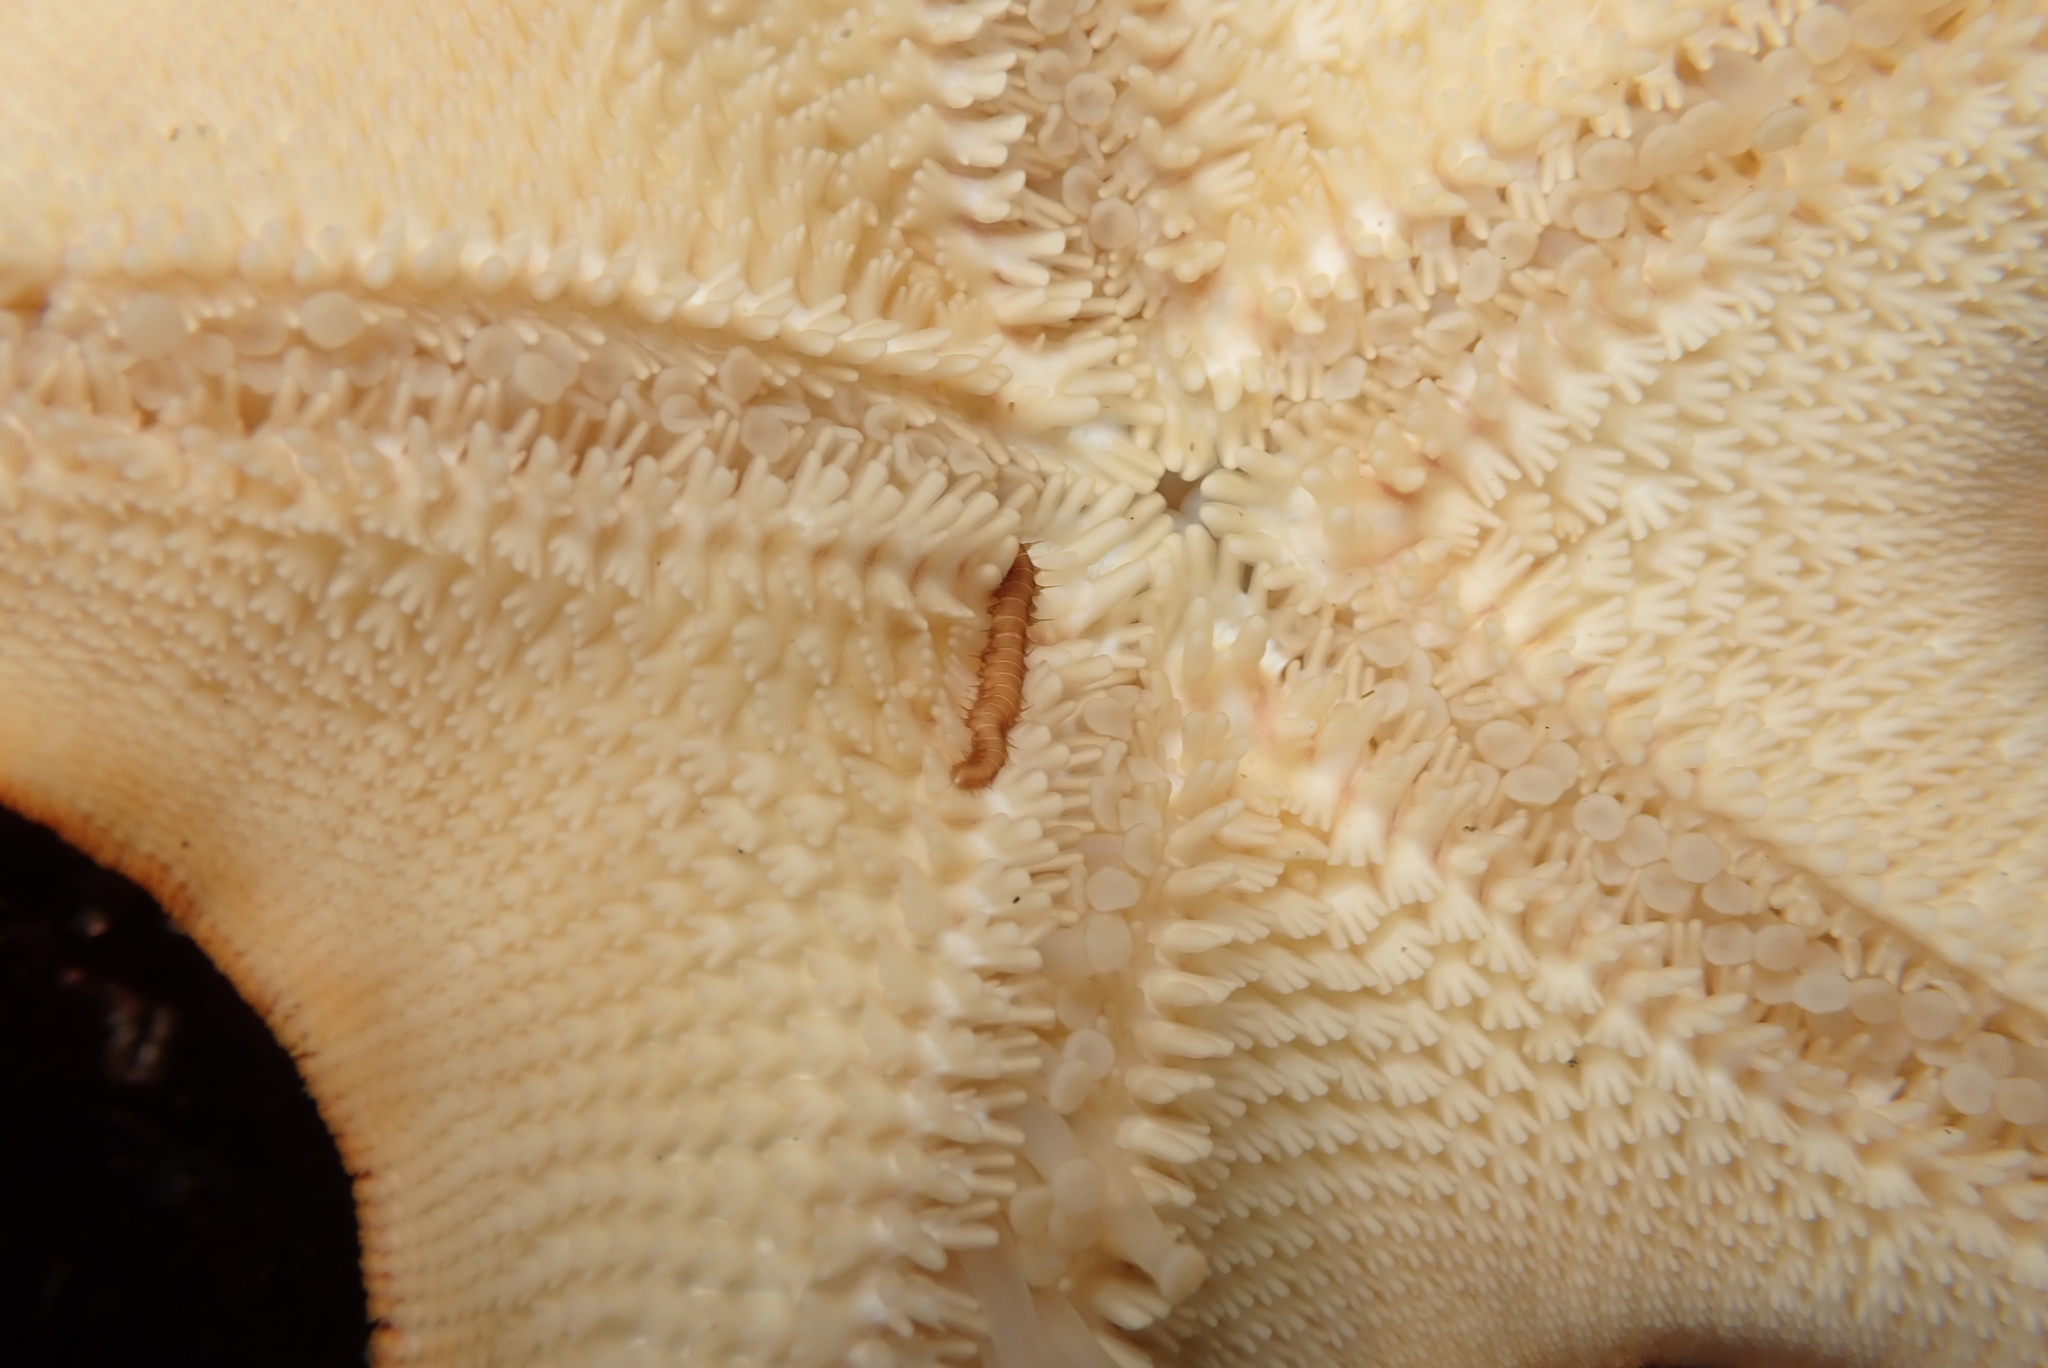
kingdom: Animalia
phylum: Annelida
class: Polychaeta
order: Phyllodocida
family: Hesionidae
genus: Oxydromus
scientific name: Oxydromus pugettensis
